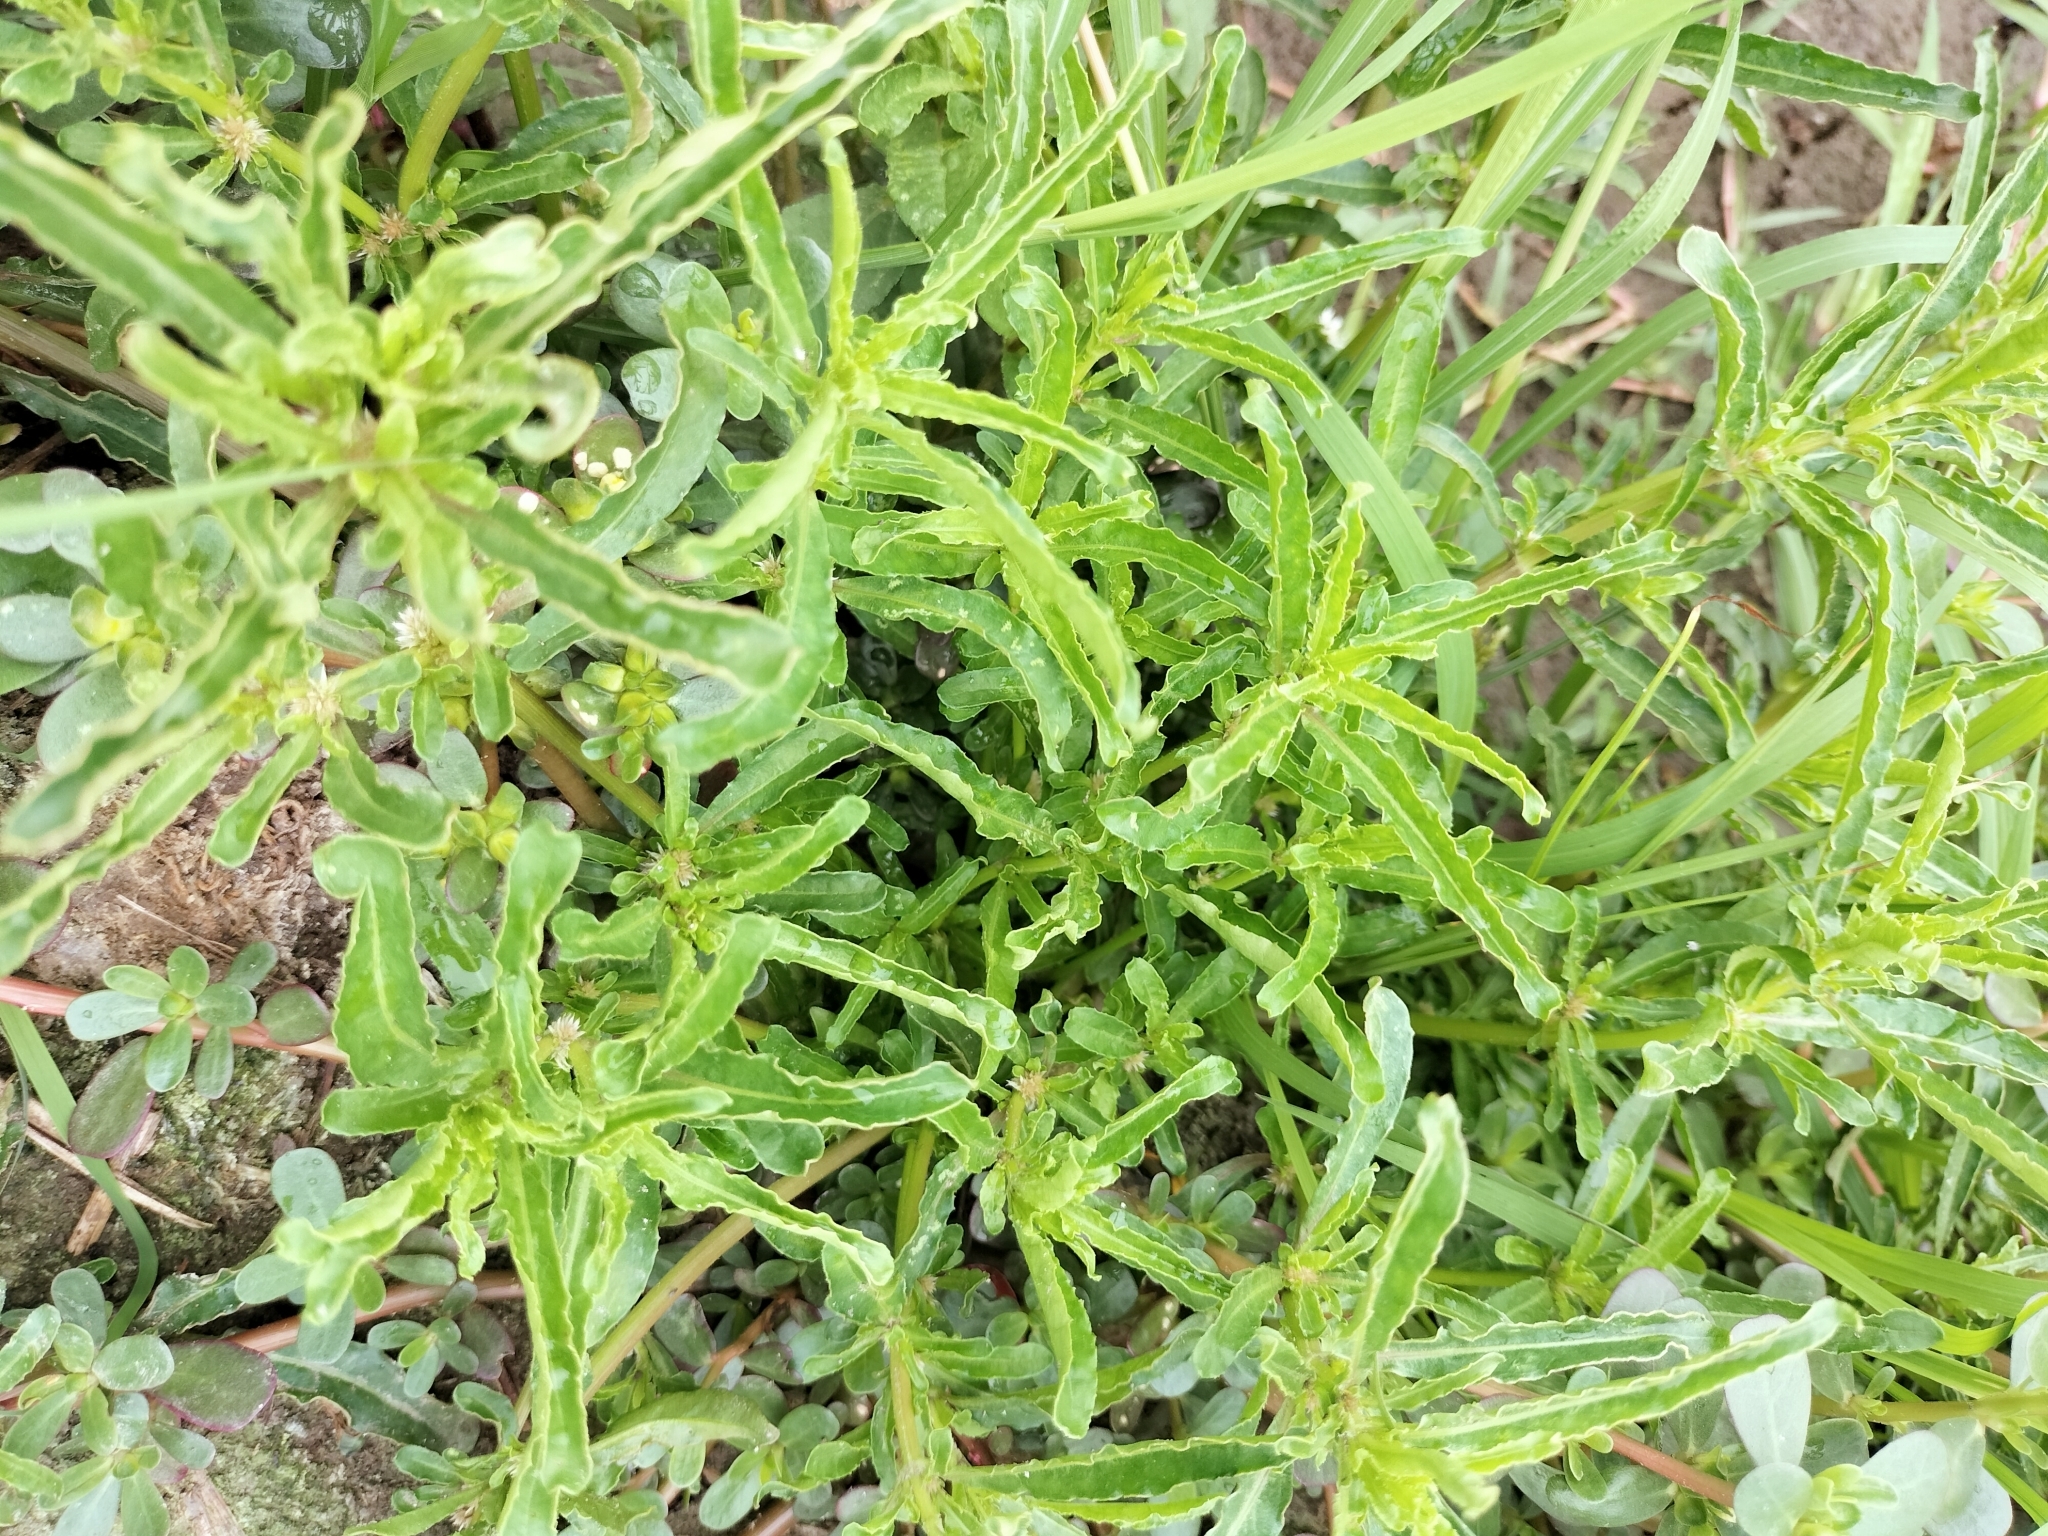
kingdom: Plantae
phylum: Tracheophyta
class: Magnoliopsida
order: Caryophyllales
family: Amaranthaceae
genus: Alternanthera
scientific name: Alternanthera sessilis
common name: Sessile joyweed
